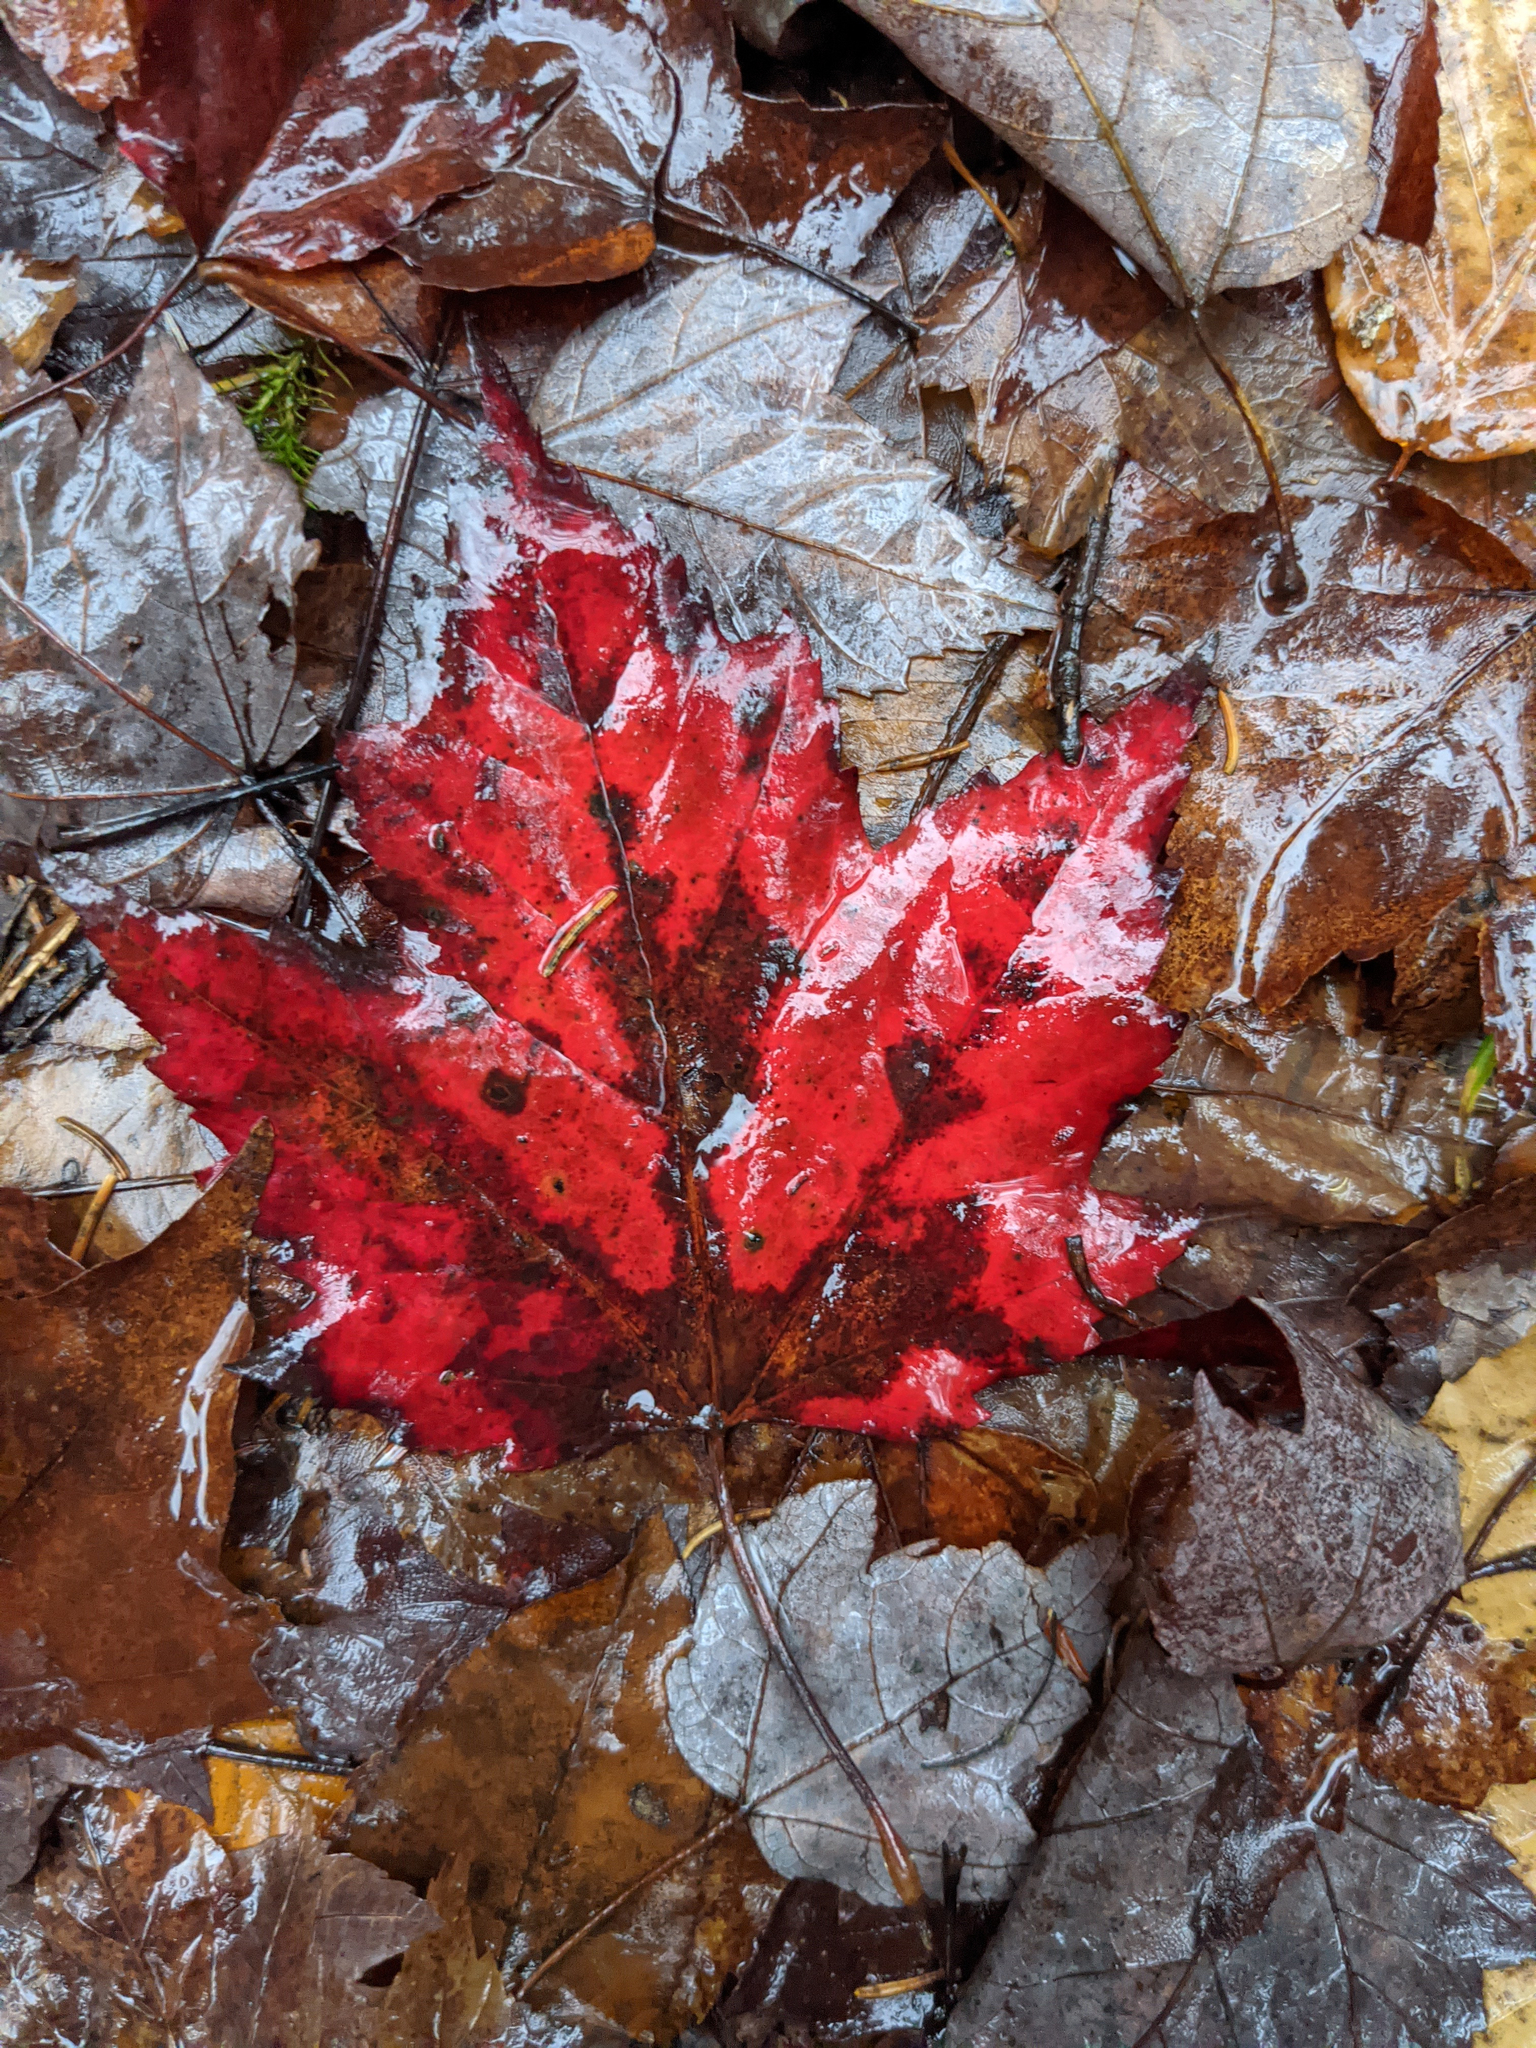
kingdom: Plantae
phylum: Tracheophyta
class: Magnoliopsida
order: Sapindales
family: Sapindaceae
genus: Acer
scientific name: Acer rubrum
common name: Red maple
